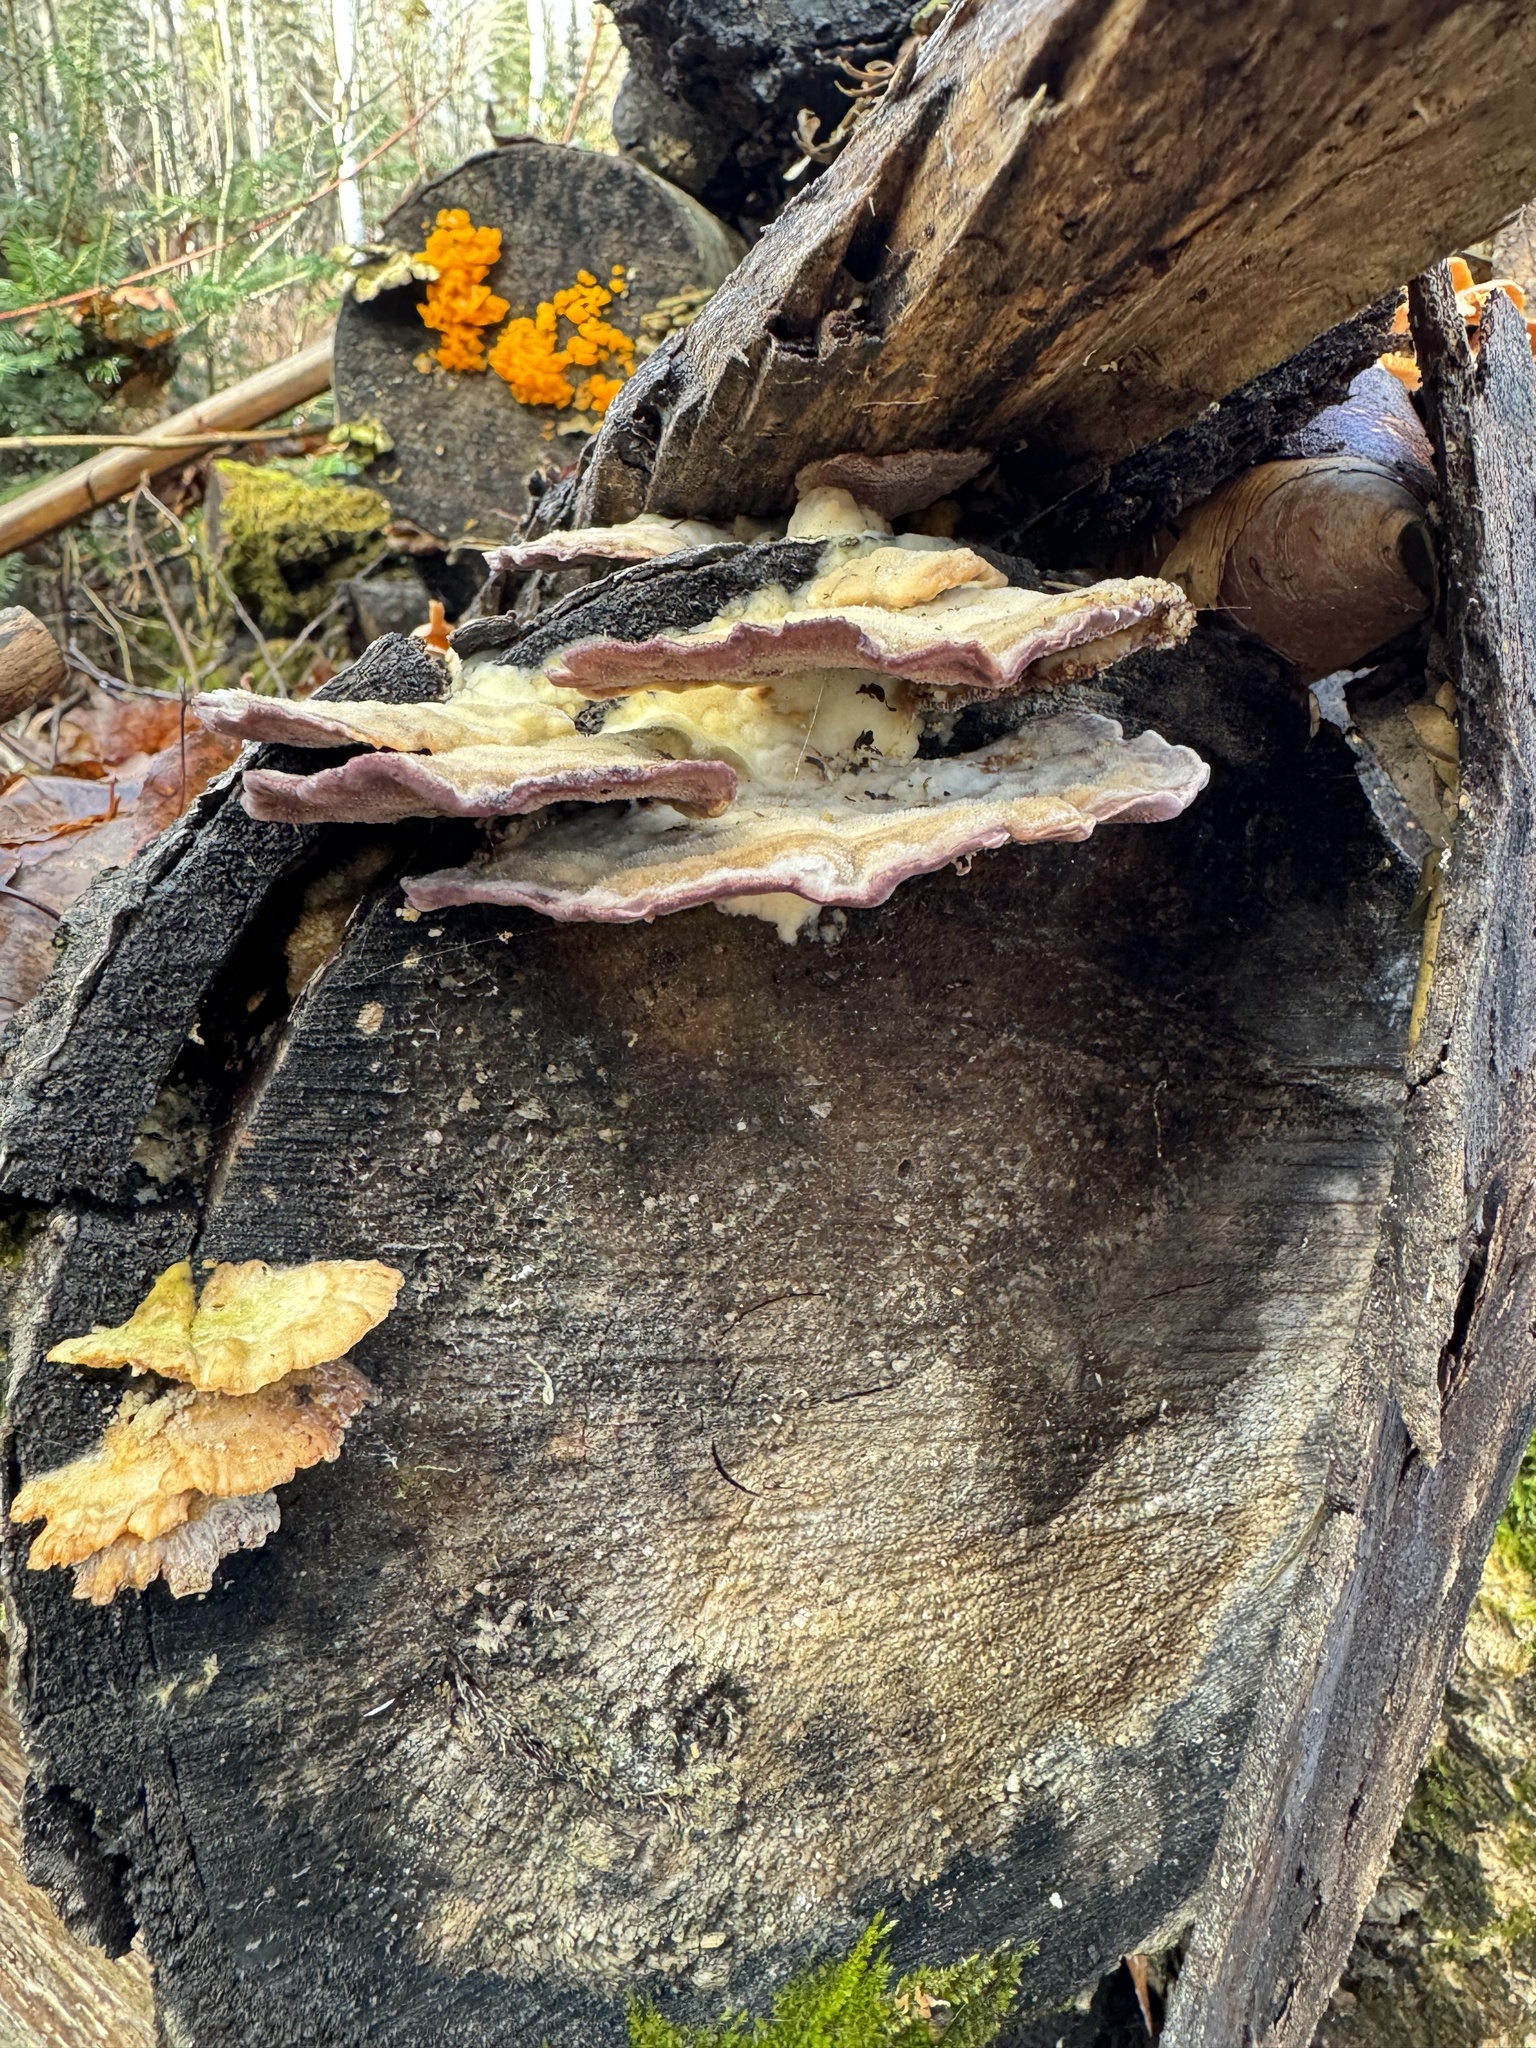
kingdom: Fungi
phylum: Basidiomycota
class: Agaricomycetes
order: Hymenochaetales
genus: Trichaptum
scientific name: Trichaptum biforme
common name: Violet-toothed polypore
